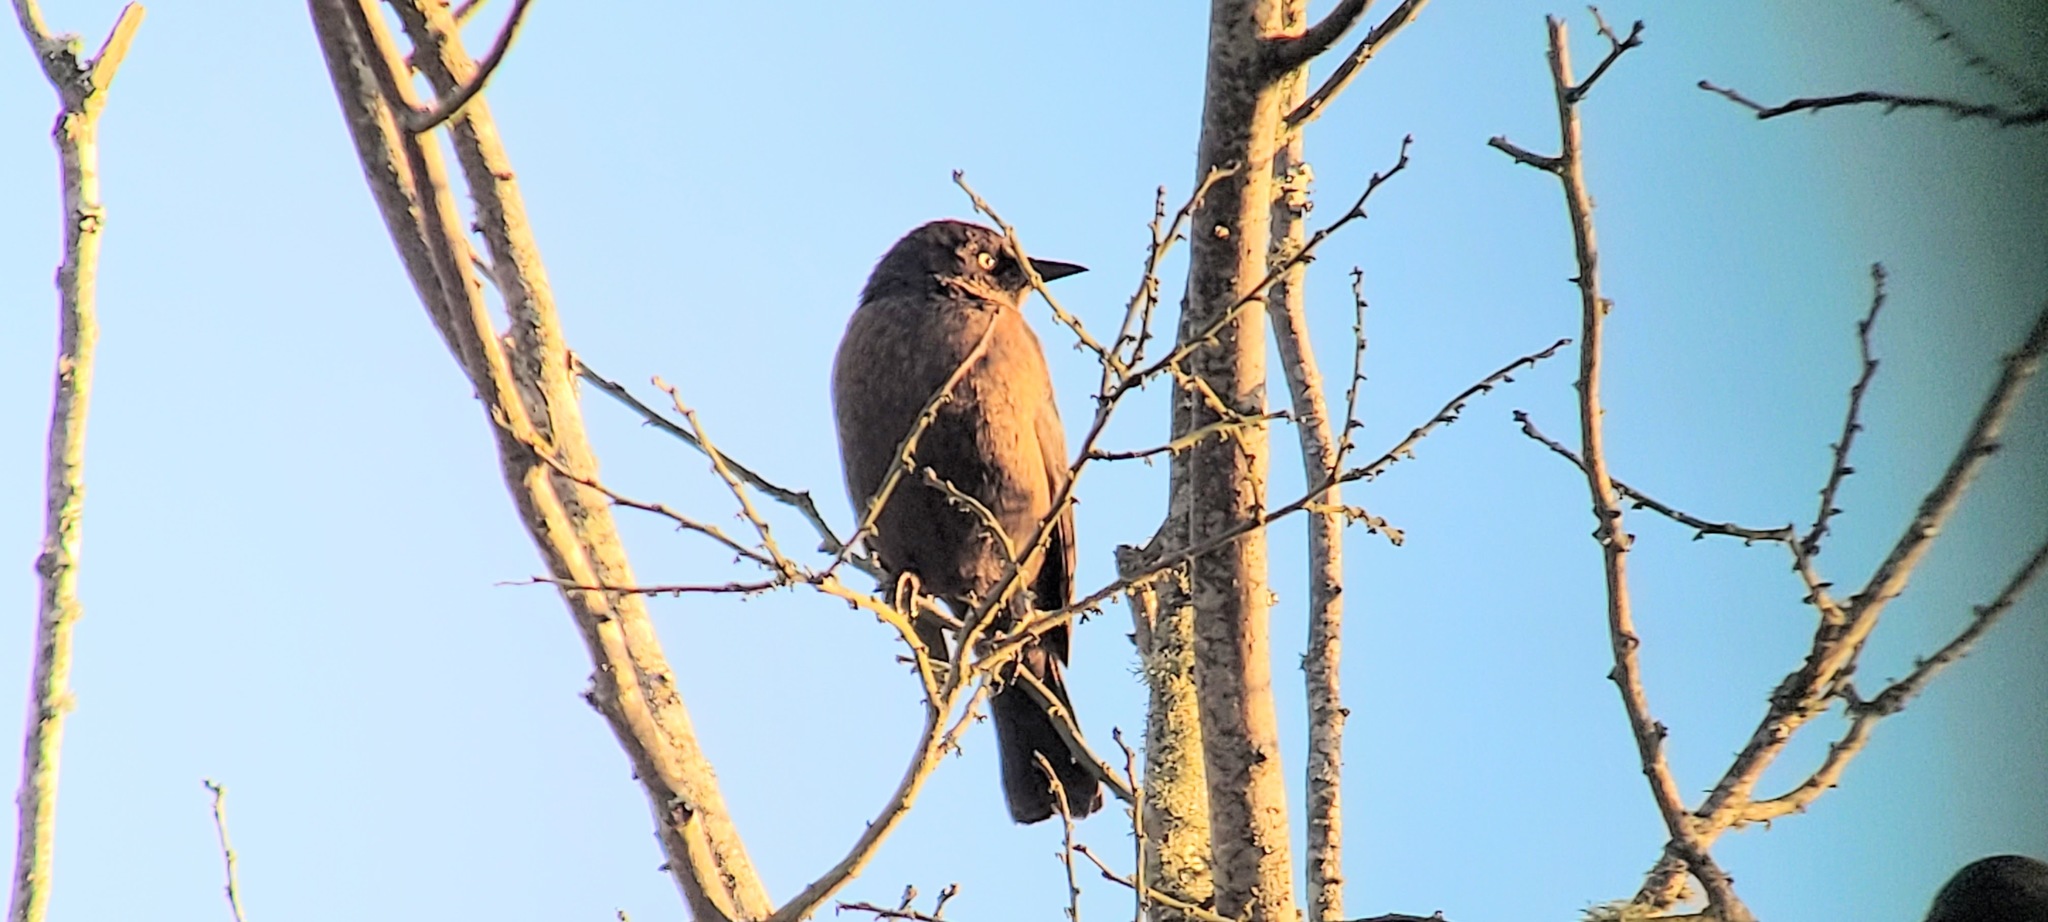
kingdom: Animalia
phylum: Chordata
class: Aves
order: Passeriformes
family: Icteridae
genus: Euphagus
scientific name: Euphagus carolinus
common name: Rusty blackbird
